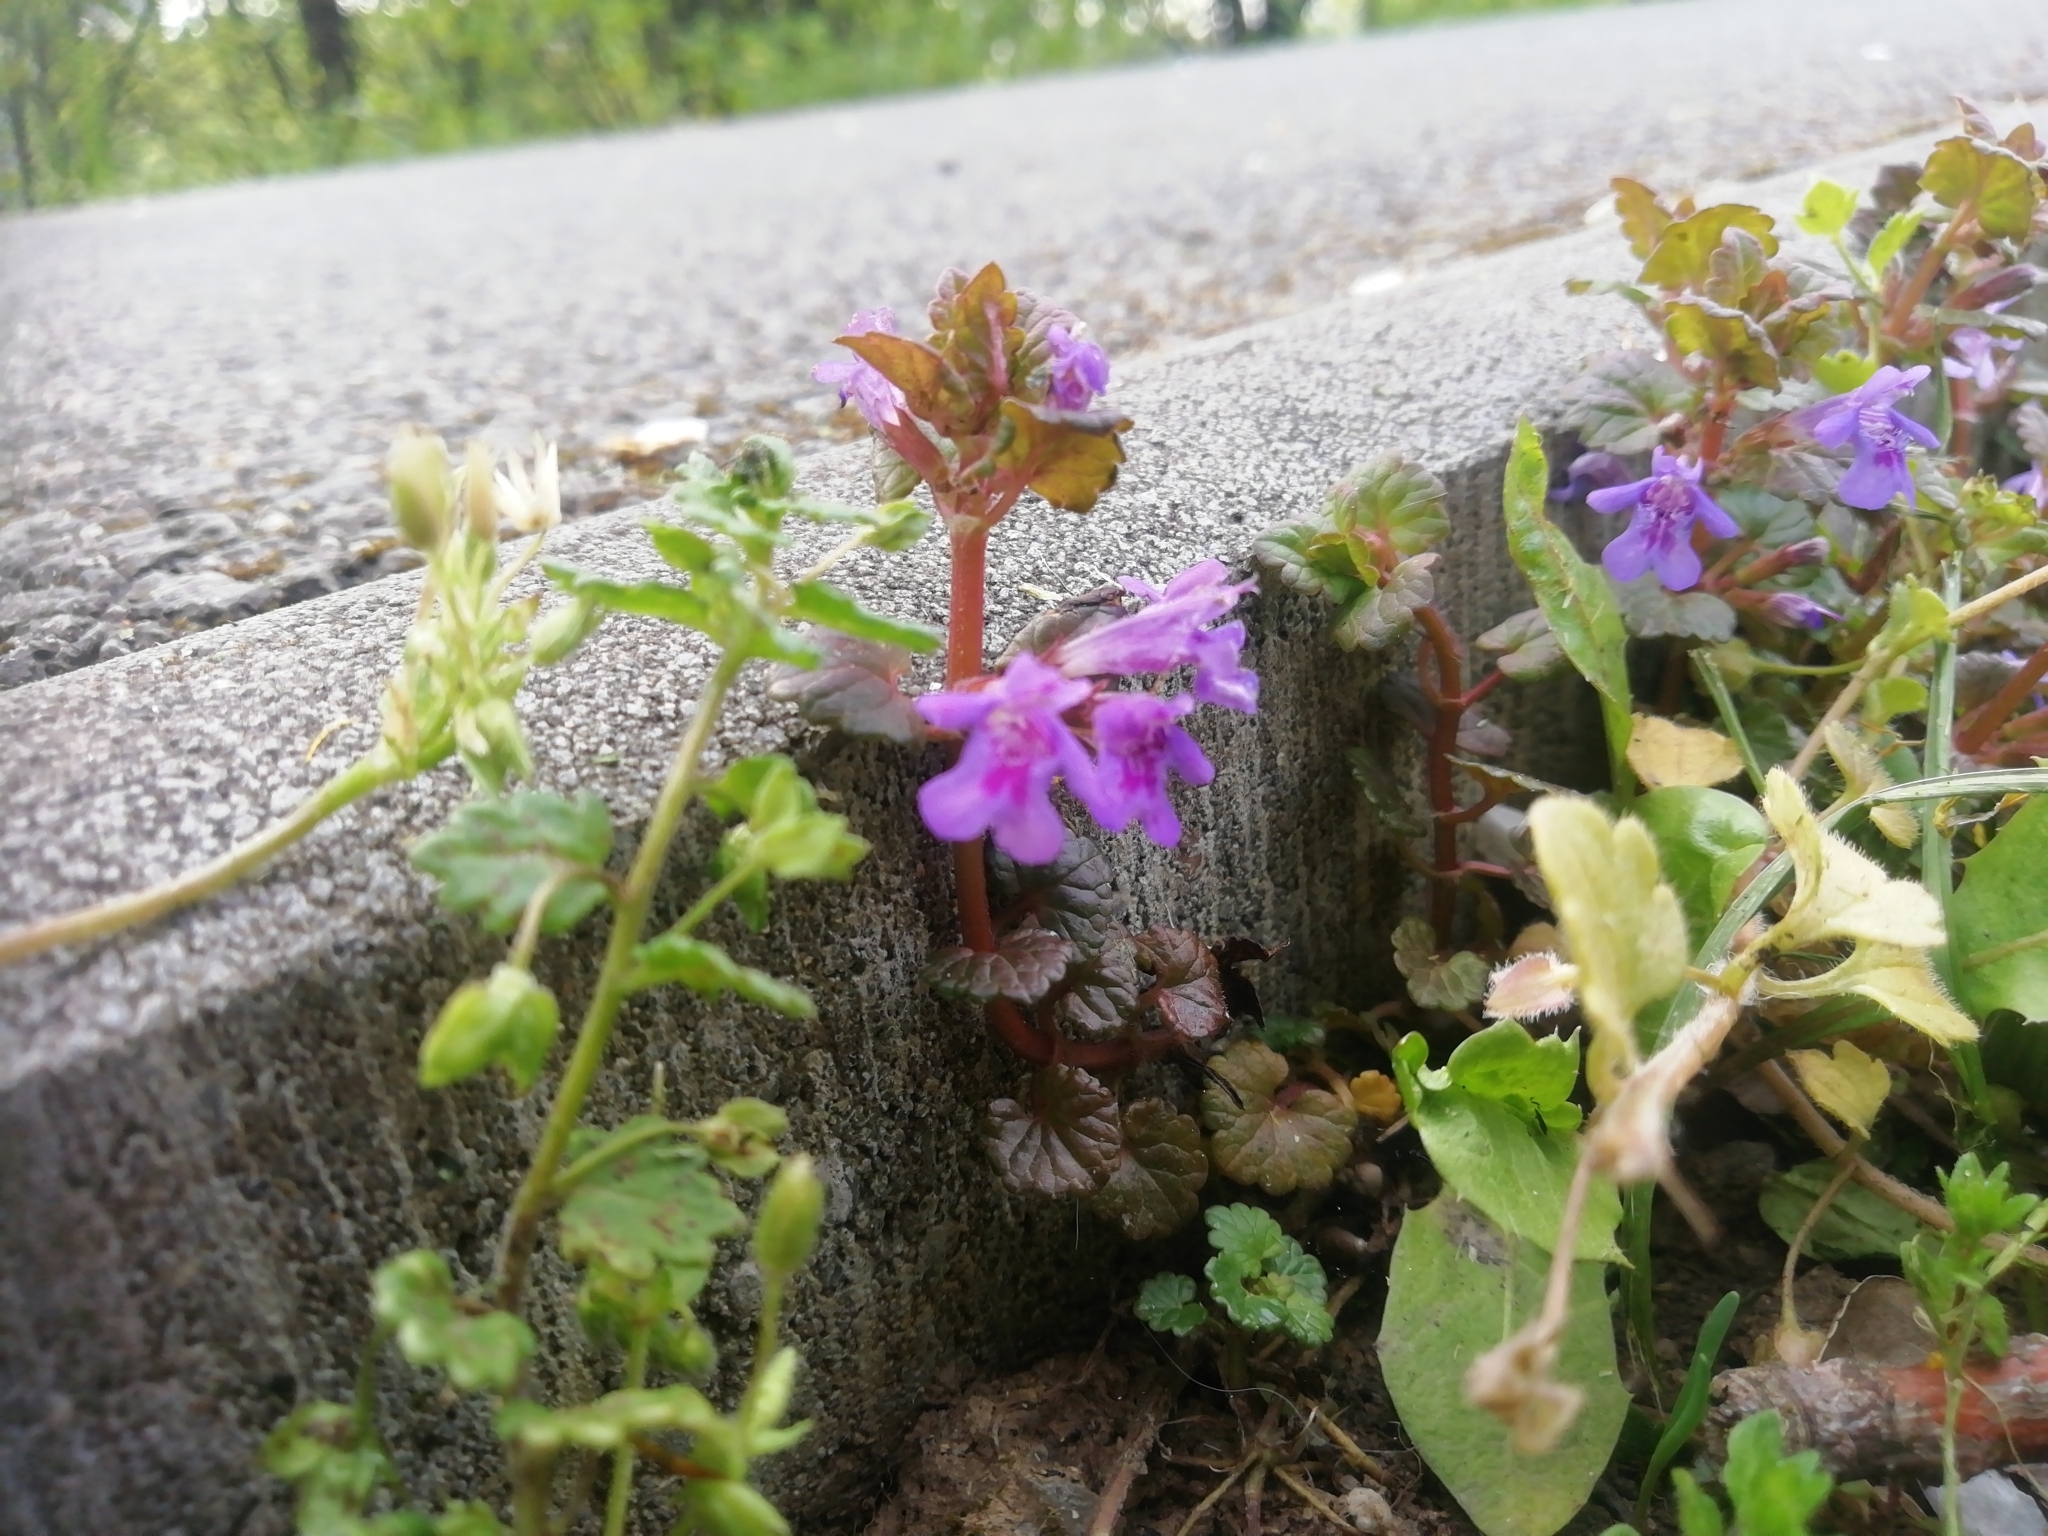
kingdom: Plantae
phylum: Tracheophyta
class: Magnoliopsida
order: Lamiales
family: Lamiaceae
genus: Glechoma
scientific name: Glechoma hederacea
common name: Ground ivy
